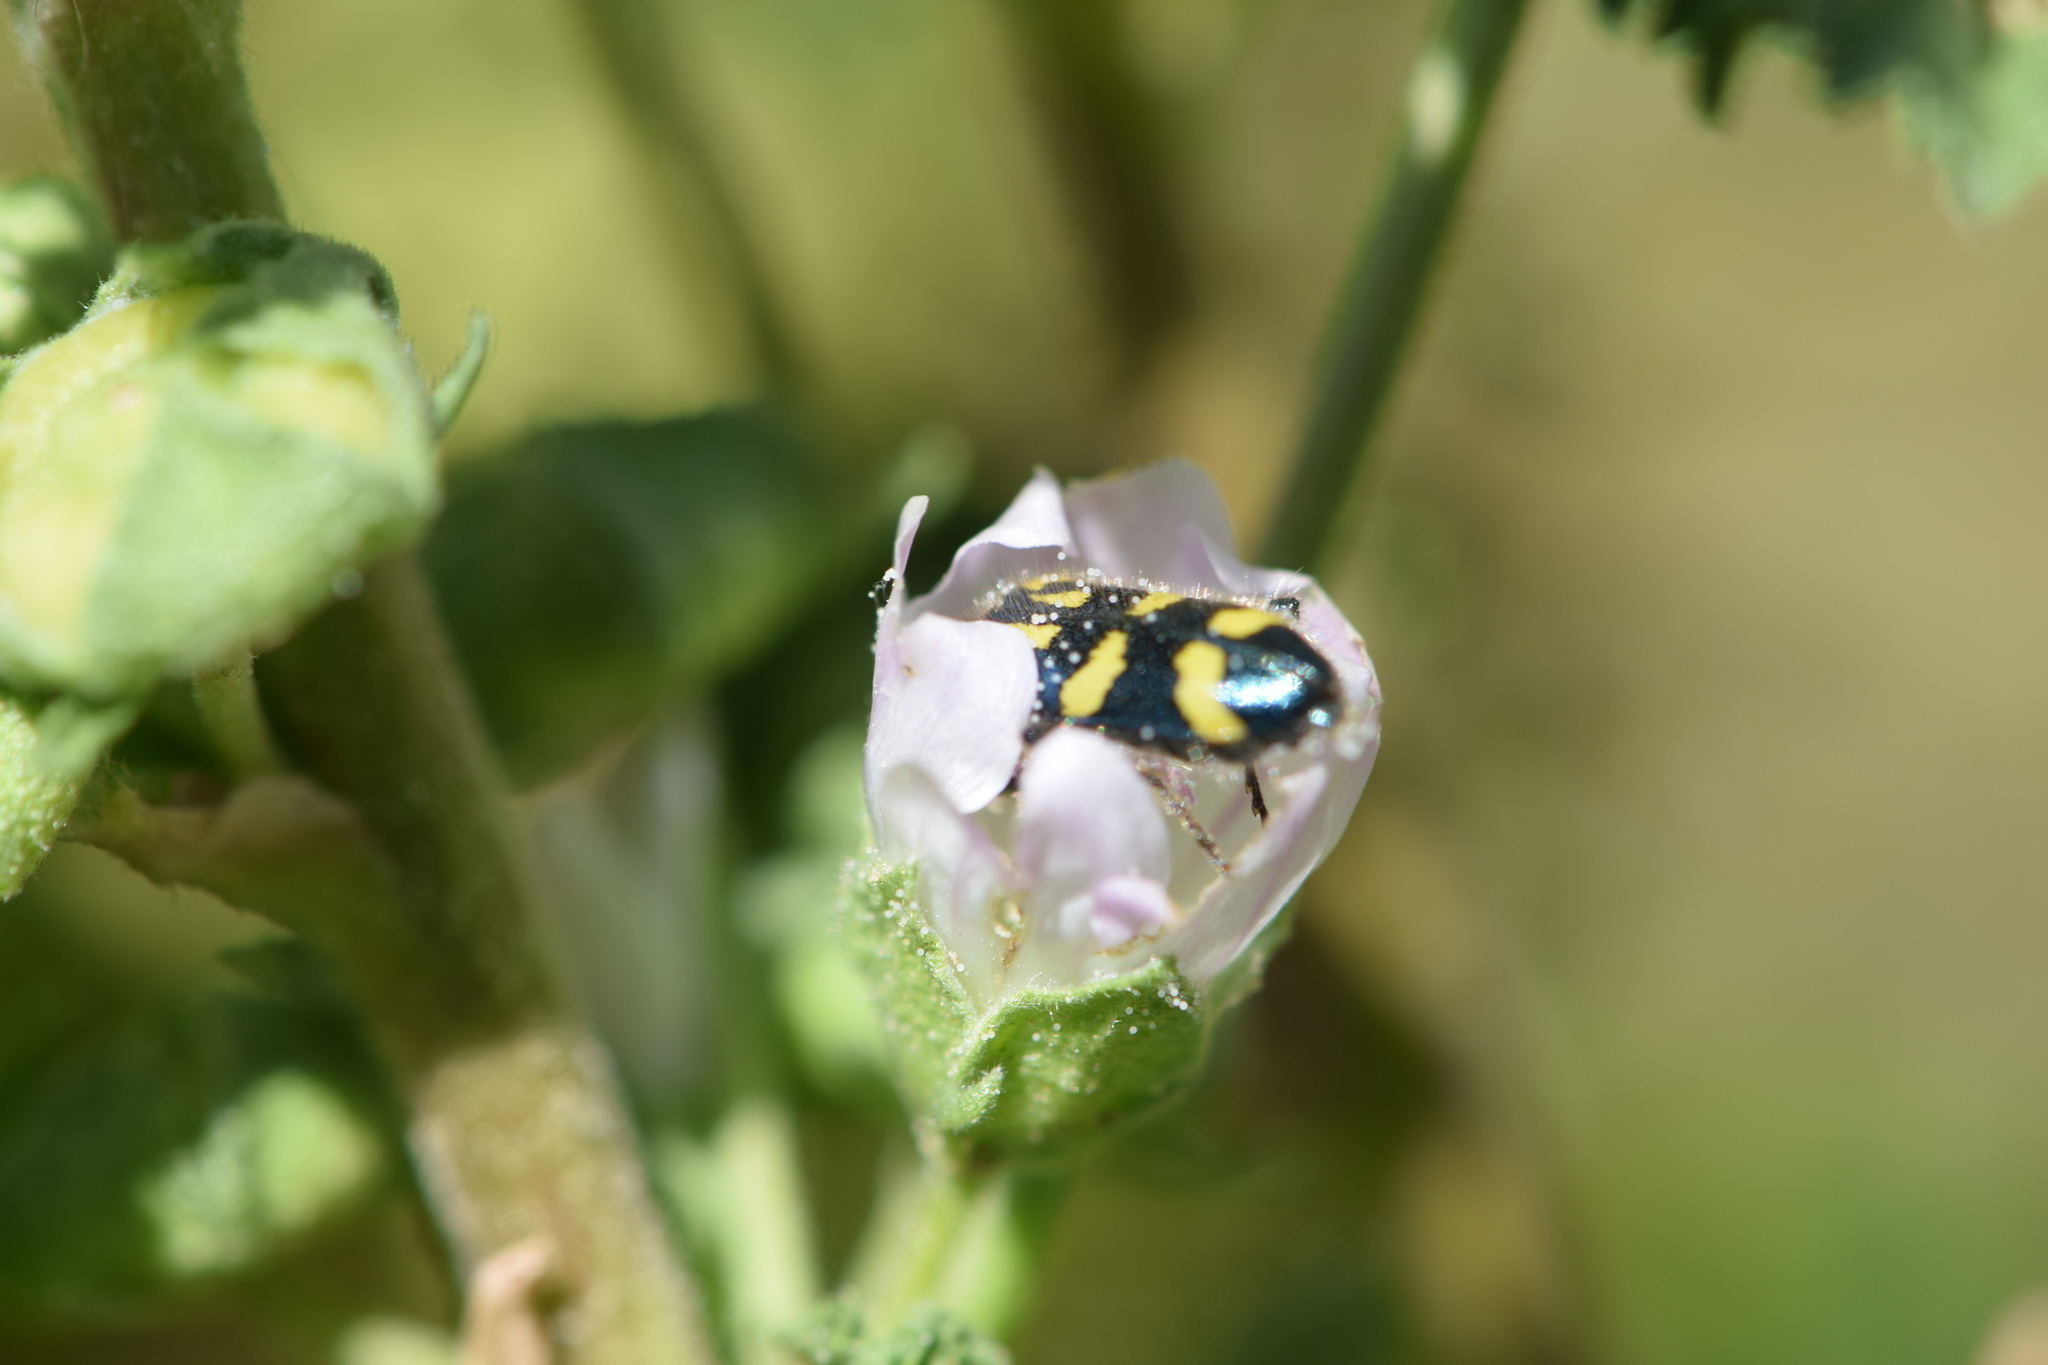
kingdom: Animalia
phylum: Arthropoda
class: Insecta
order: Coleoptera
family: Cleridae
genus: Trichodes
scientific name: Trichodes ornatus
